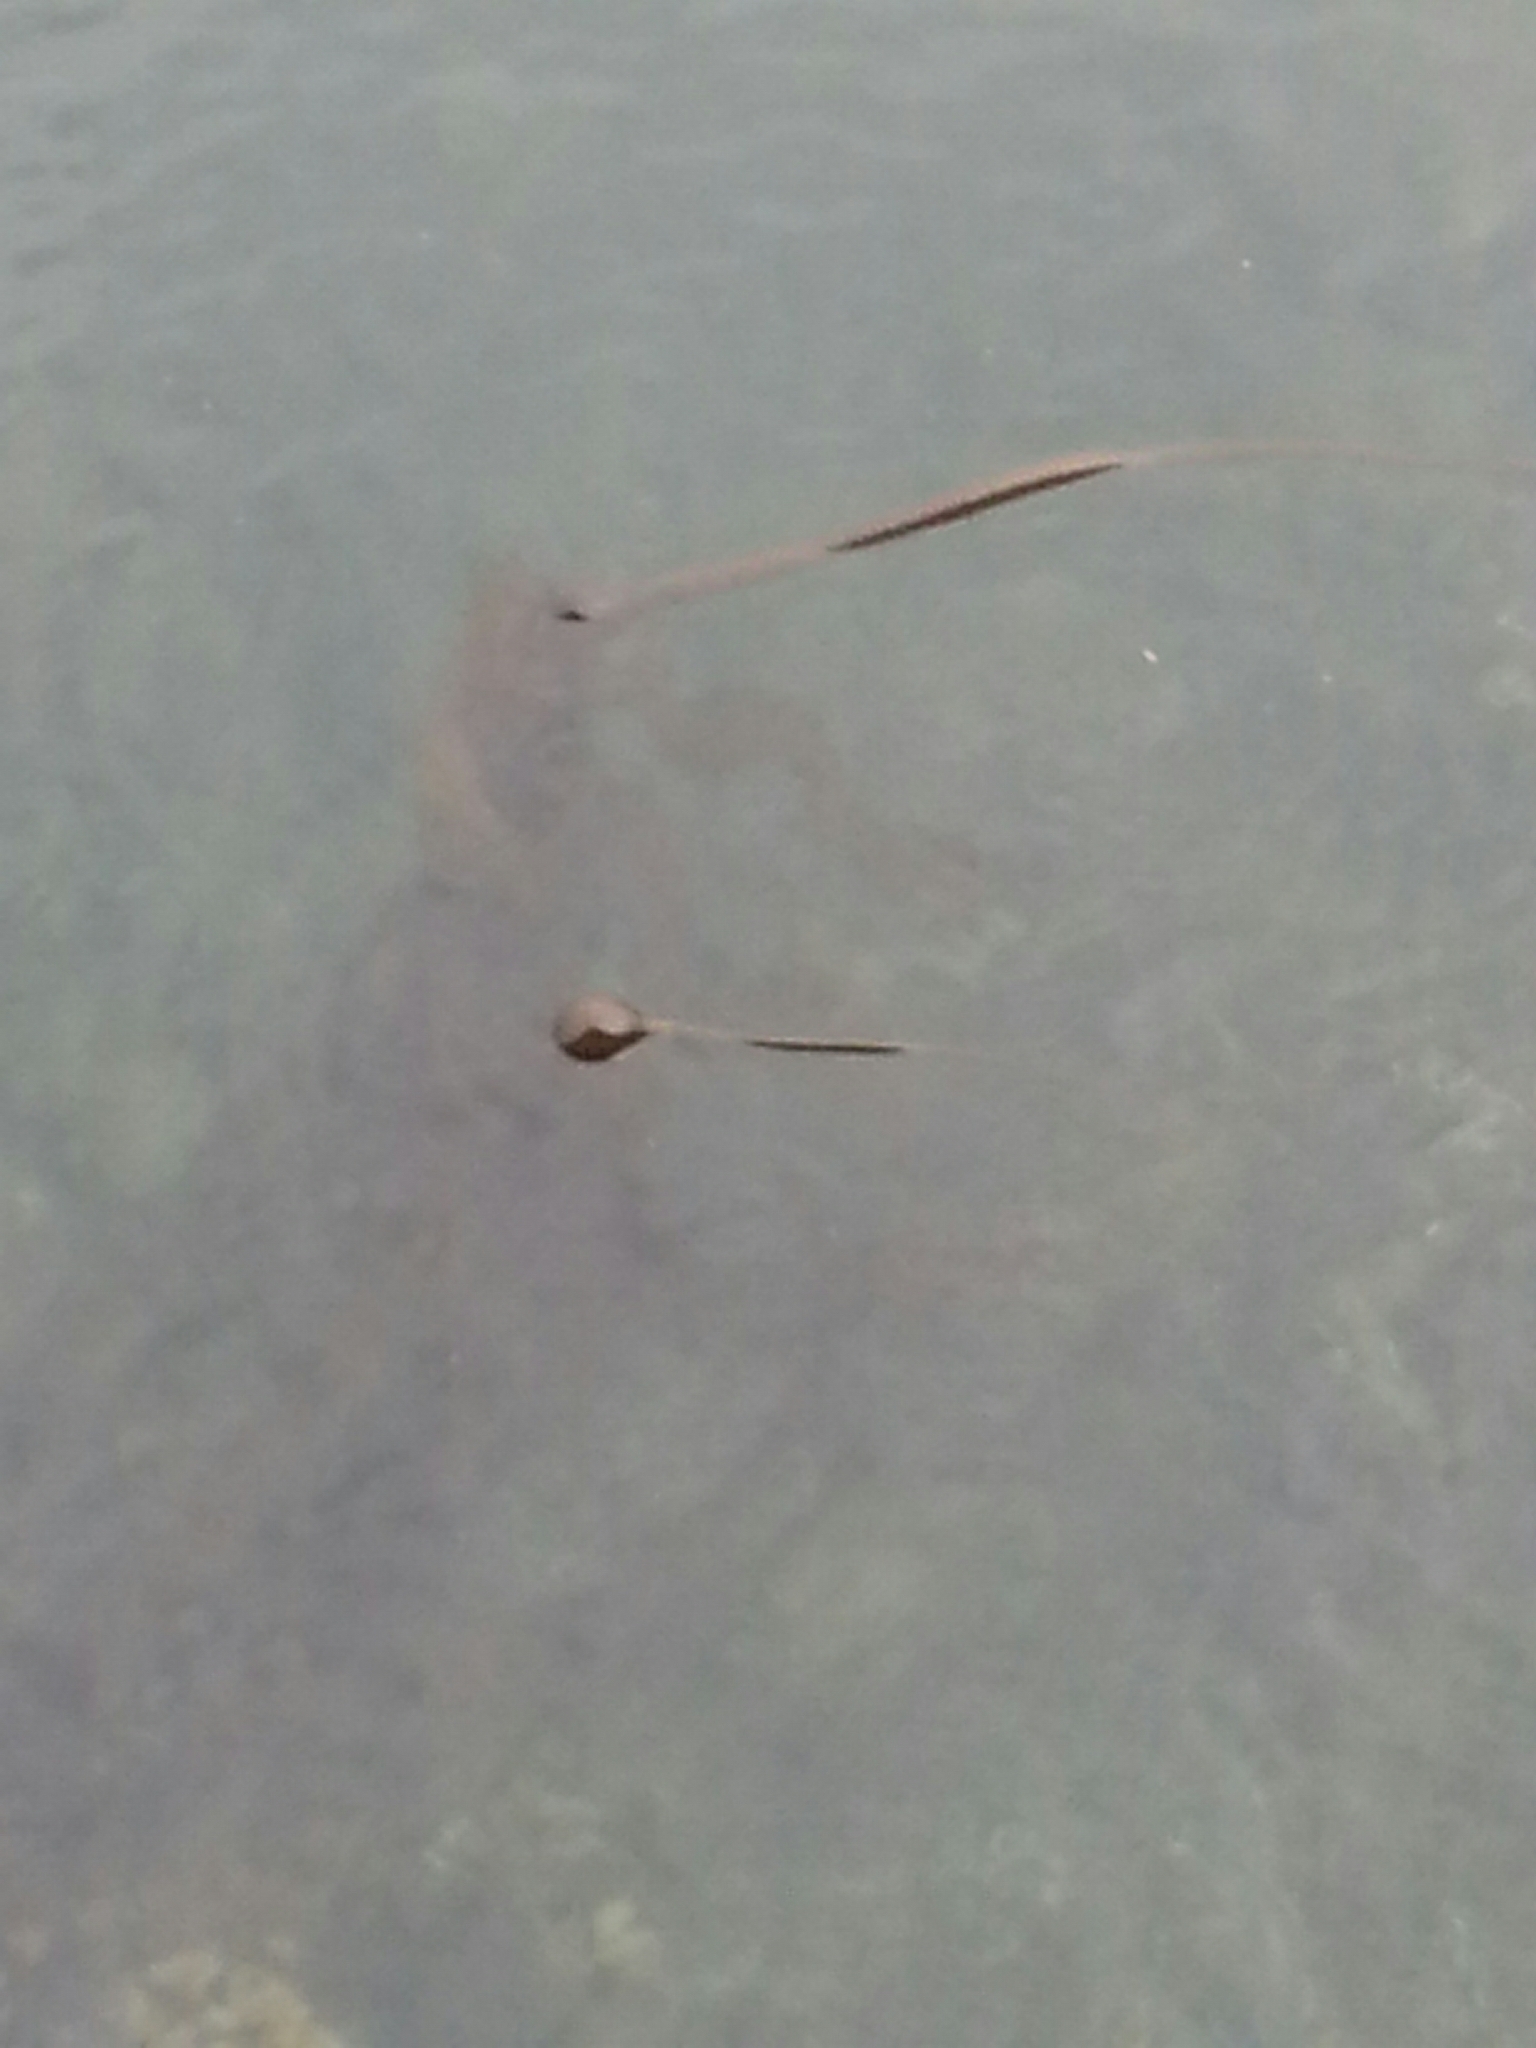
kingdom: Chromista
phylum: Ochrophyta
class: Phaeophyceae
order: Laminariales
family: Laminariaceae
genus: Nereocystis
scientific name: Nereocystis luetkeana
